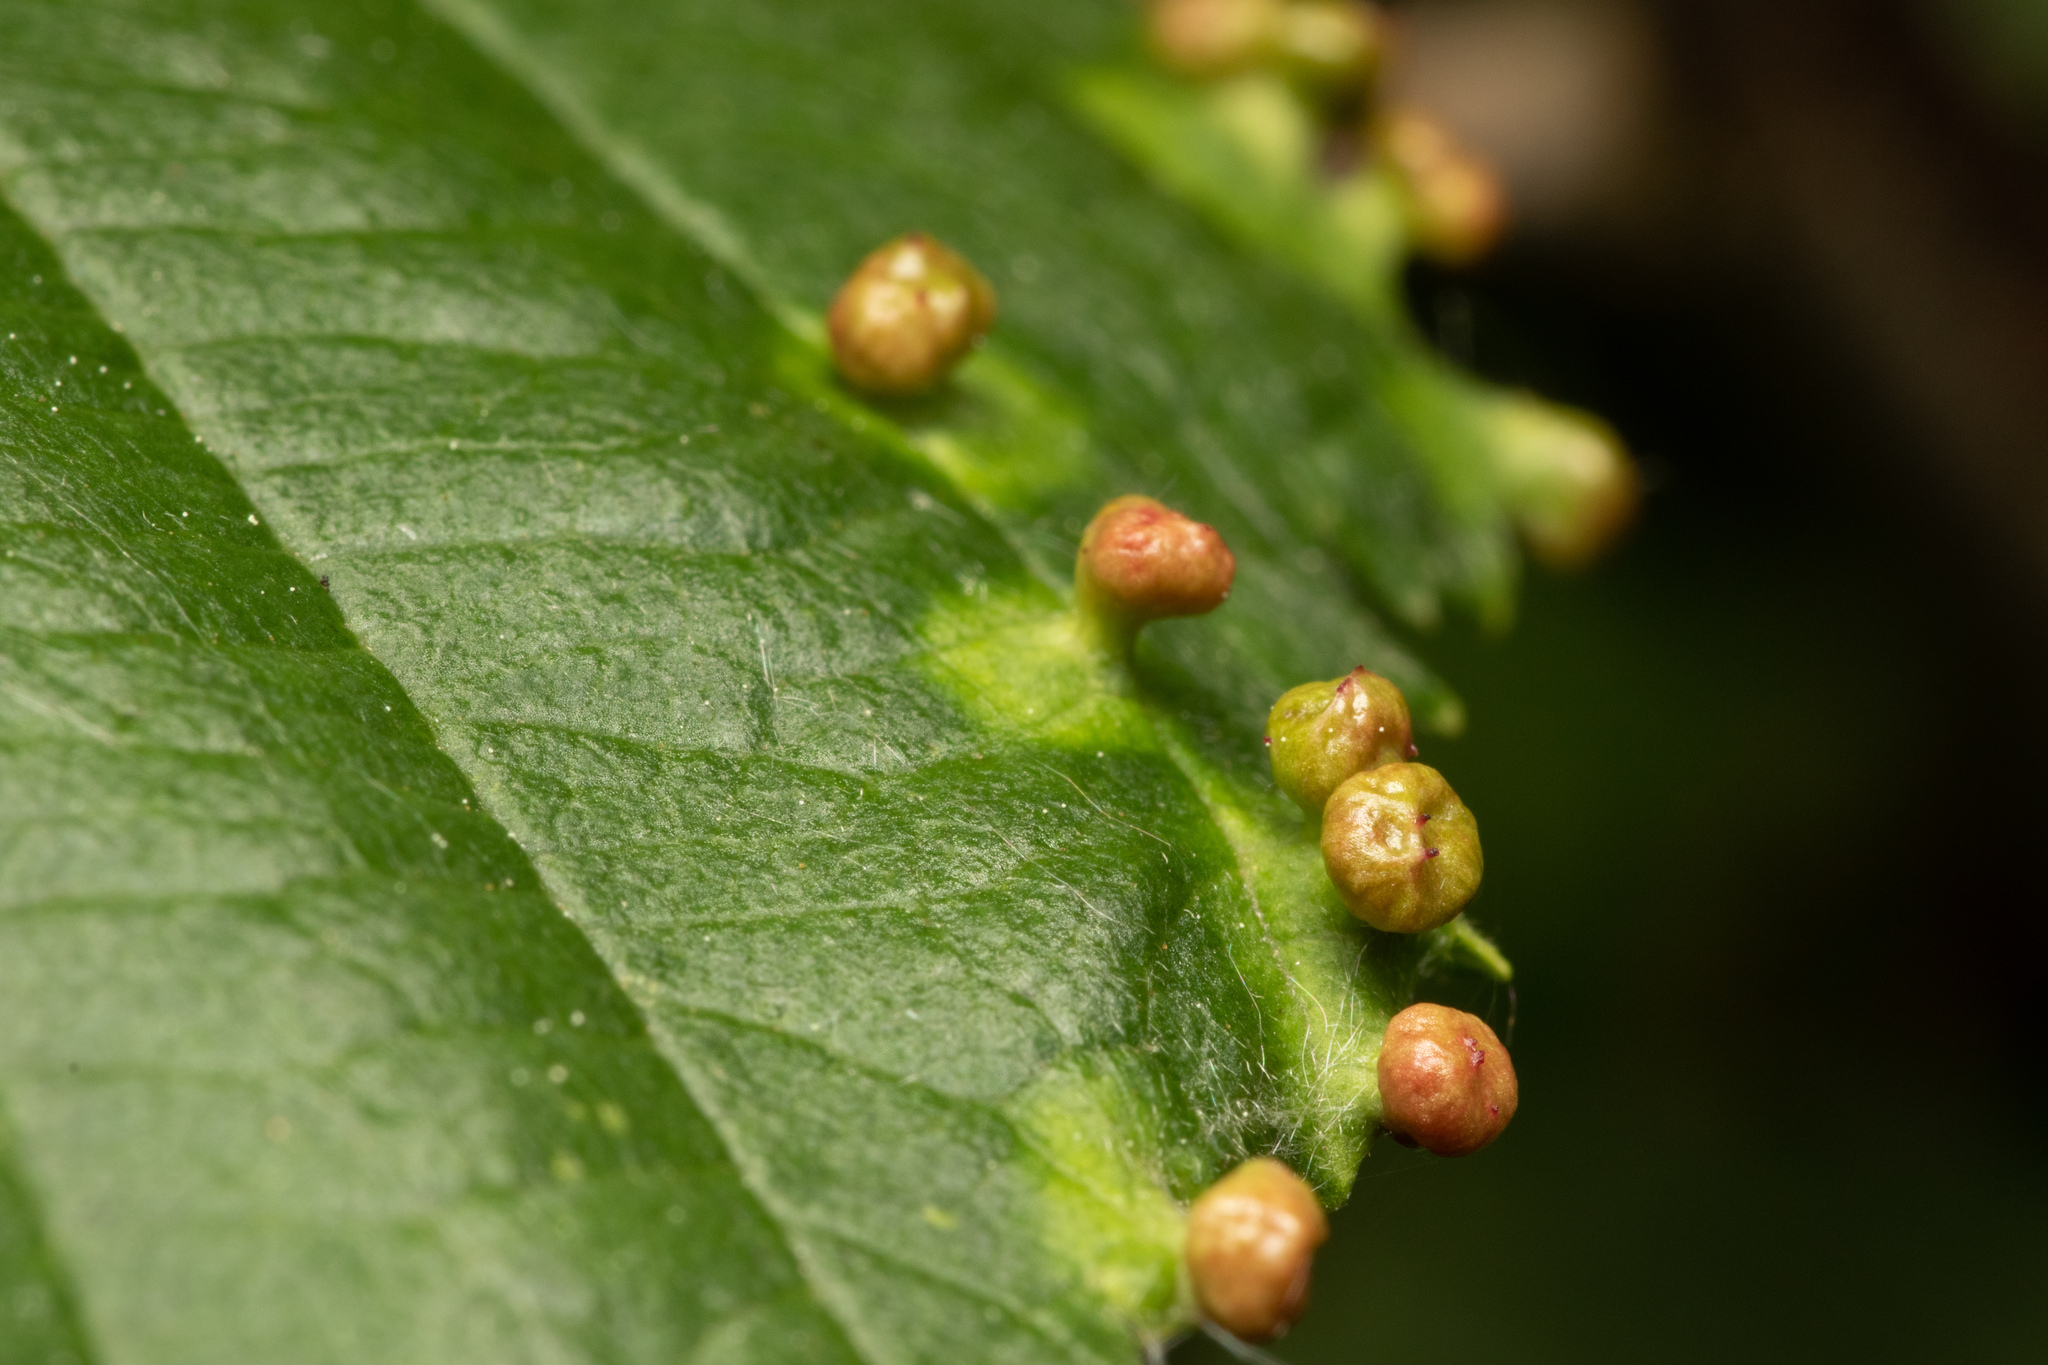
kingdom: Animalia
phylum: Arthropoda
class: Arachnida
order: Trombidiformes
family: Eriophyidae
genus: Eriophyes
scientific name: Eriophyes laevis
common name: Alder leaf gall mite
